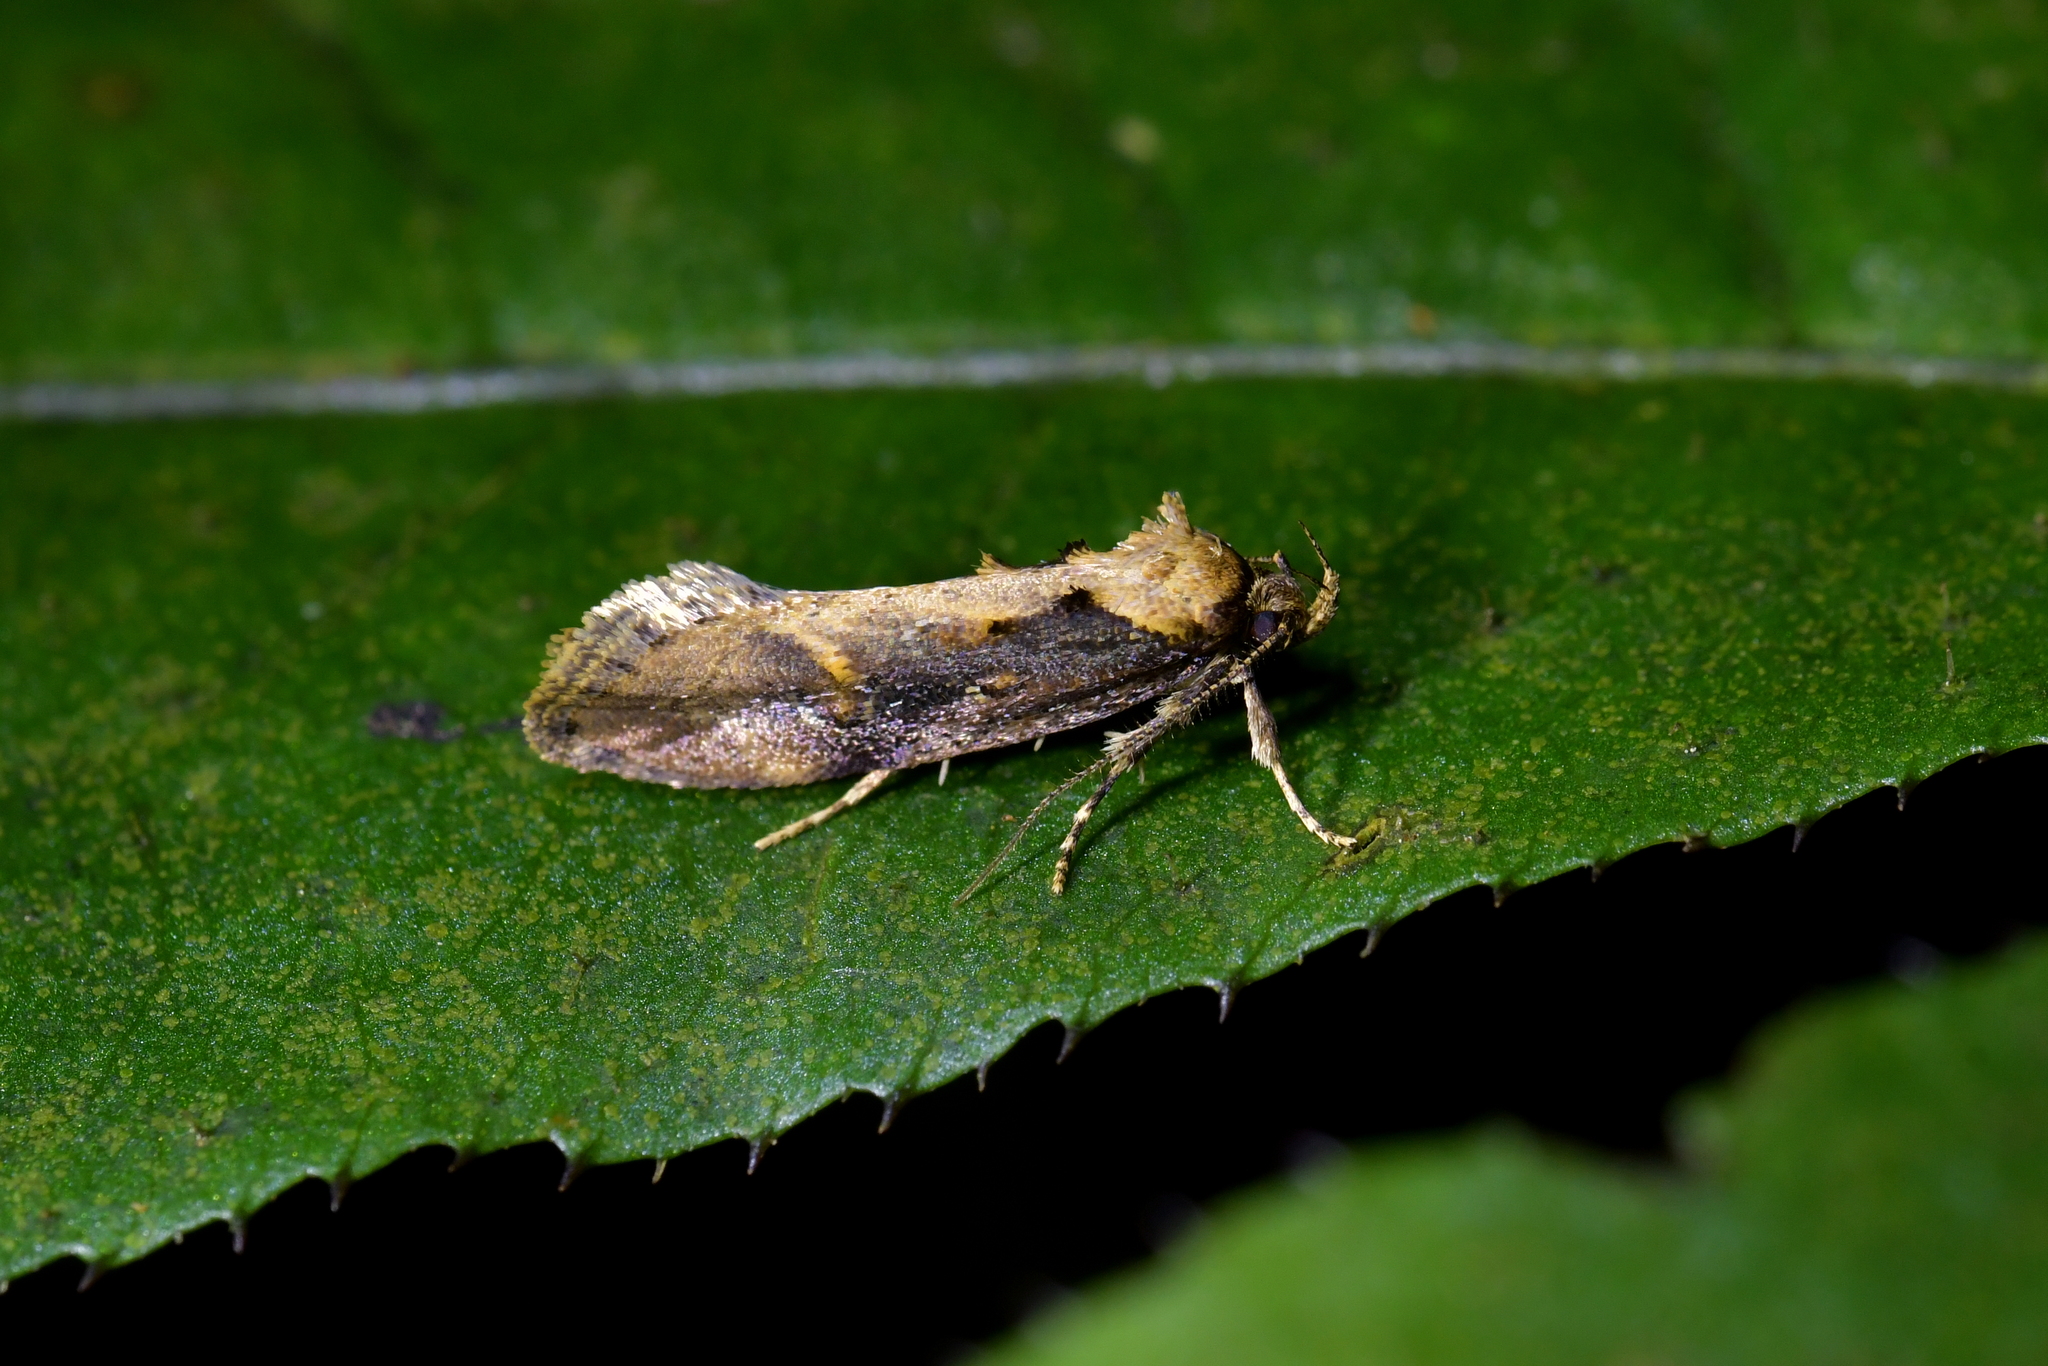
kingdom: Animalia
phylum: Arthropoda
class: Insecta
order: Lepidoptera
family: Oecophoridae
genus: Atomotricha
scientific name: Atomotricha isogama
